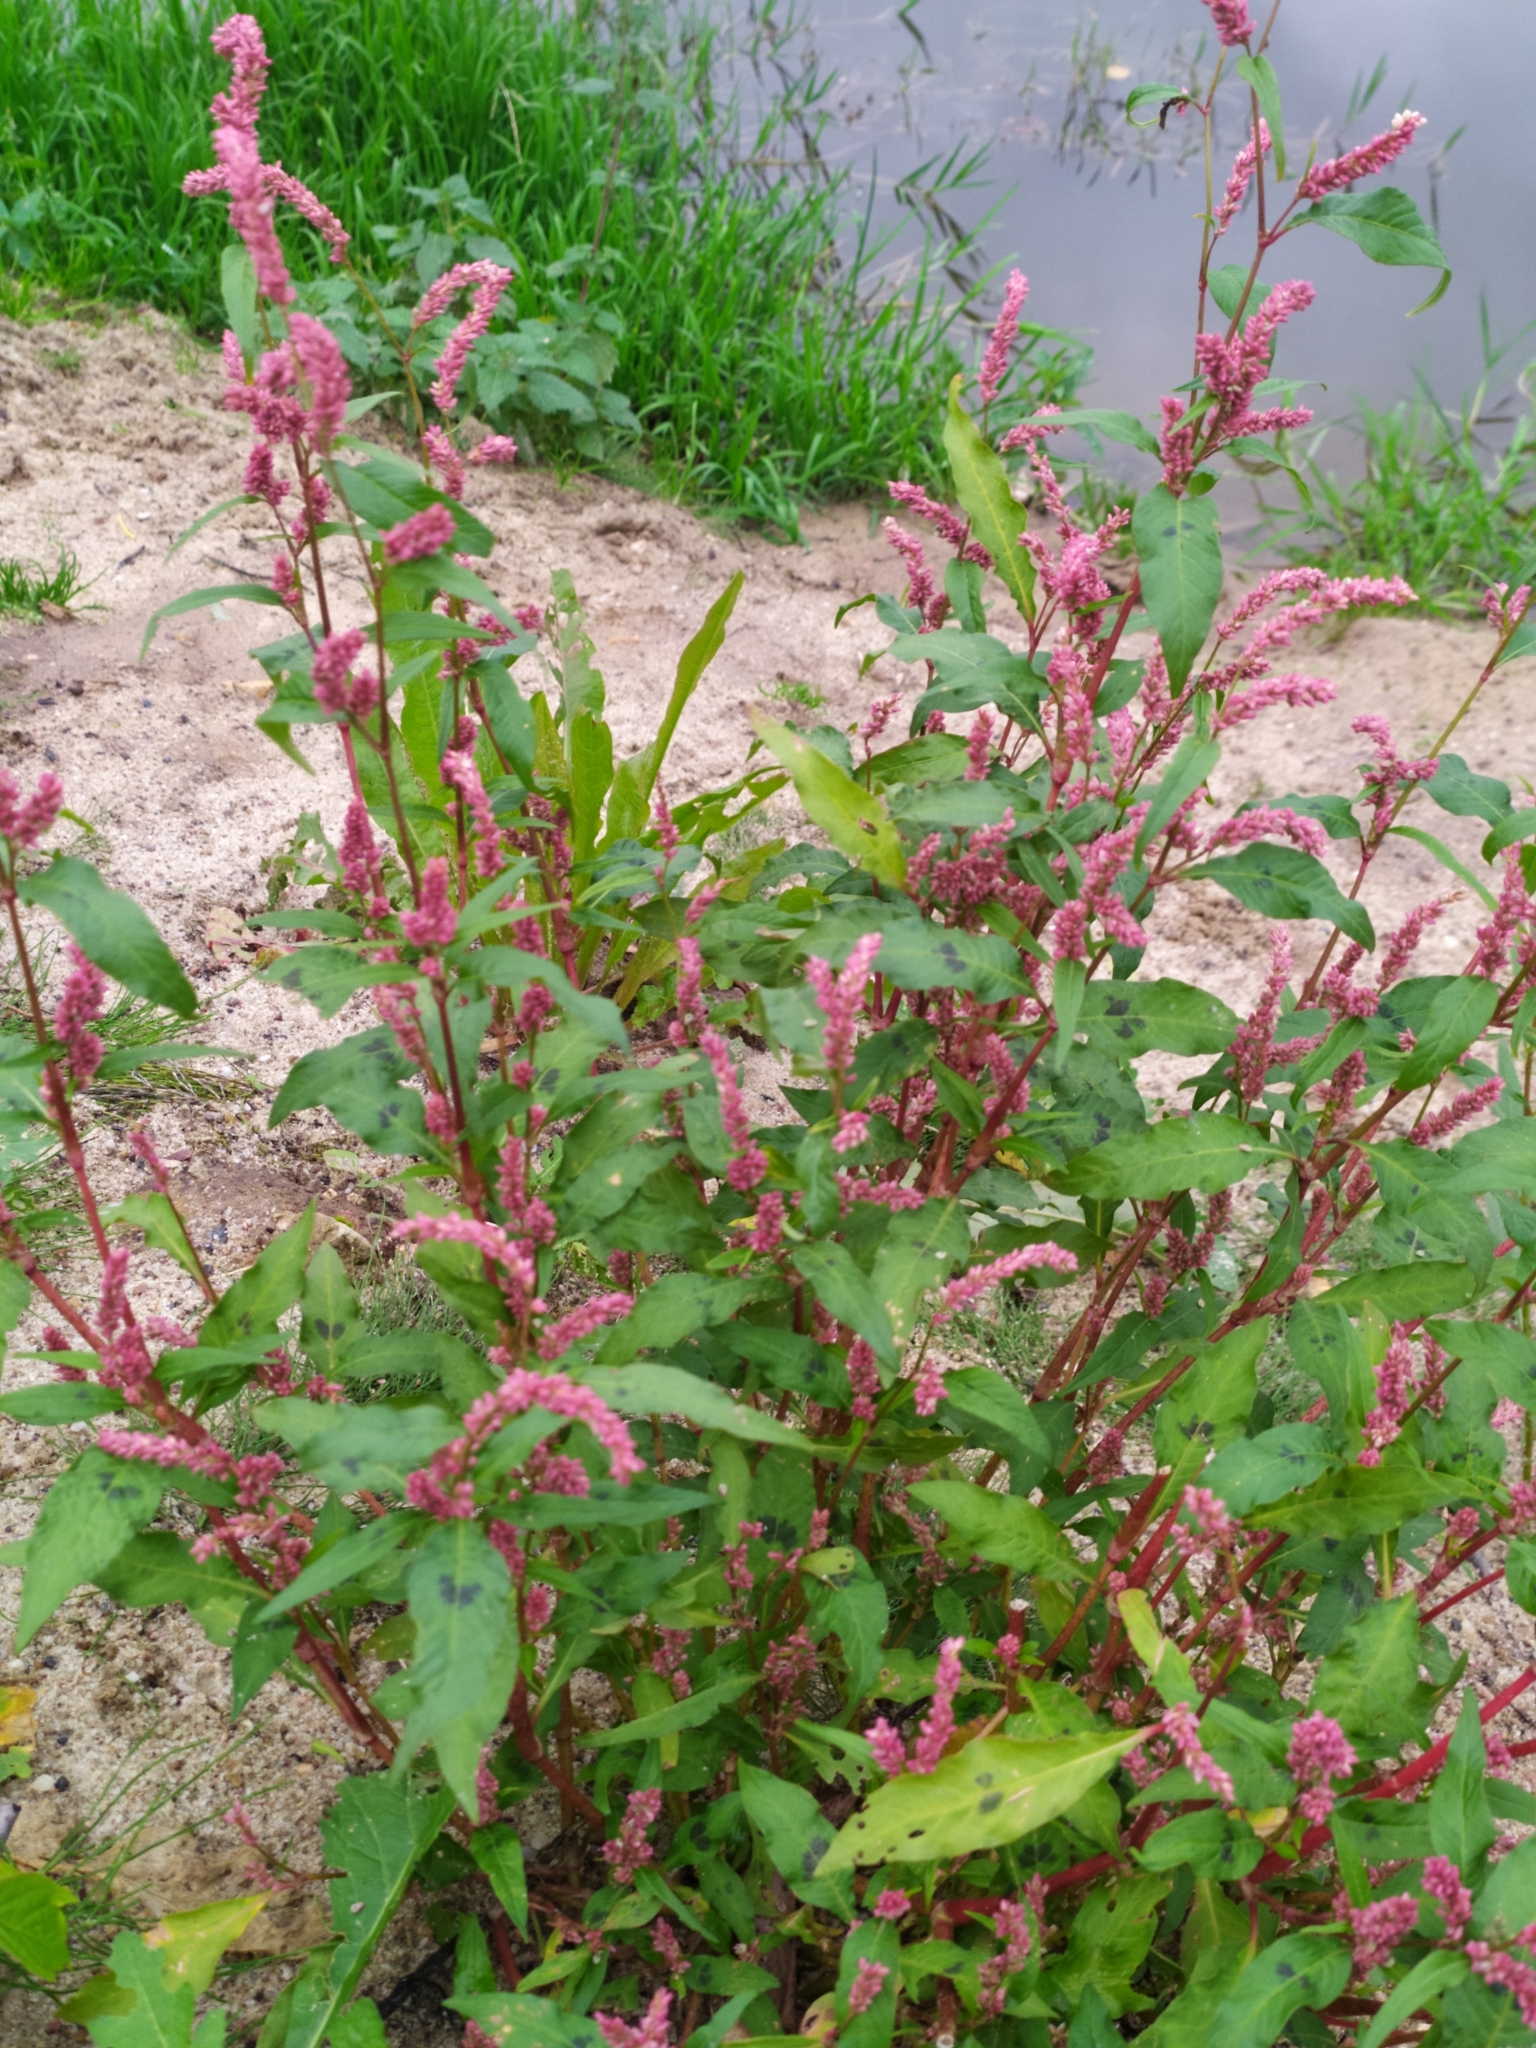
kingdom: Plantae
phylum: Tracheophyta
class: Magnoliopsida
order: Caryophyllales
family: Polygonaceae
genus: Persicaria
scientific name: Persicaria lapathifolia
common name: Curlytop knotweed
